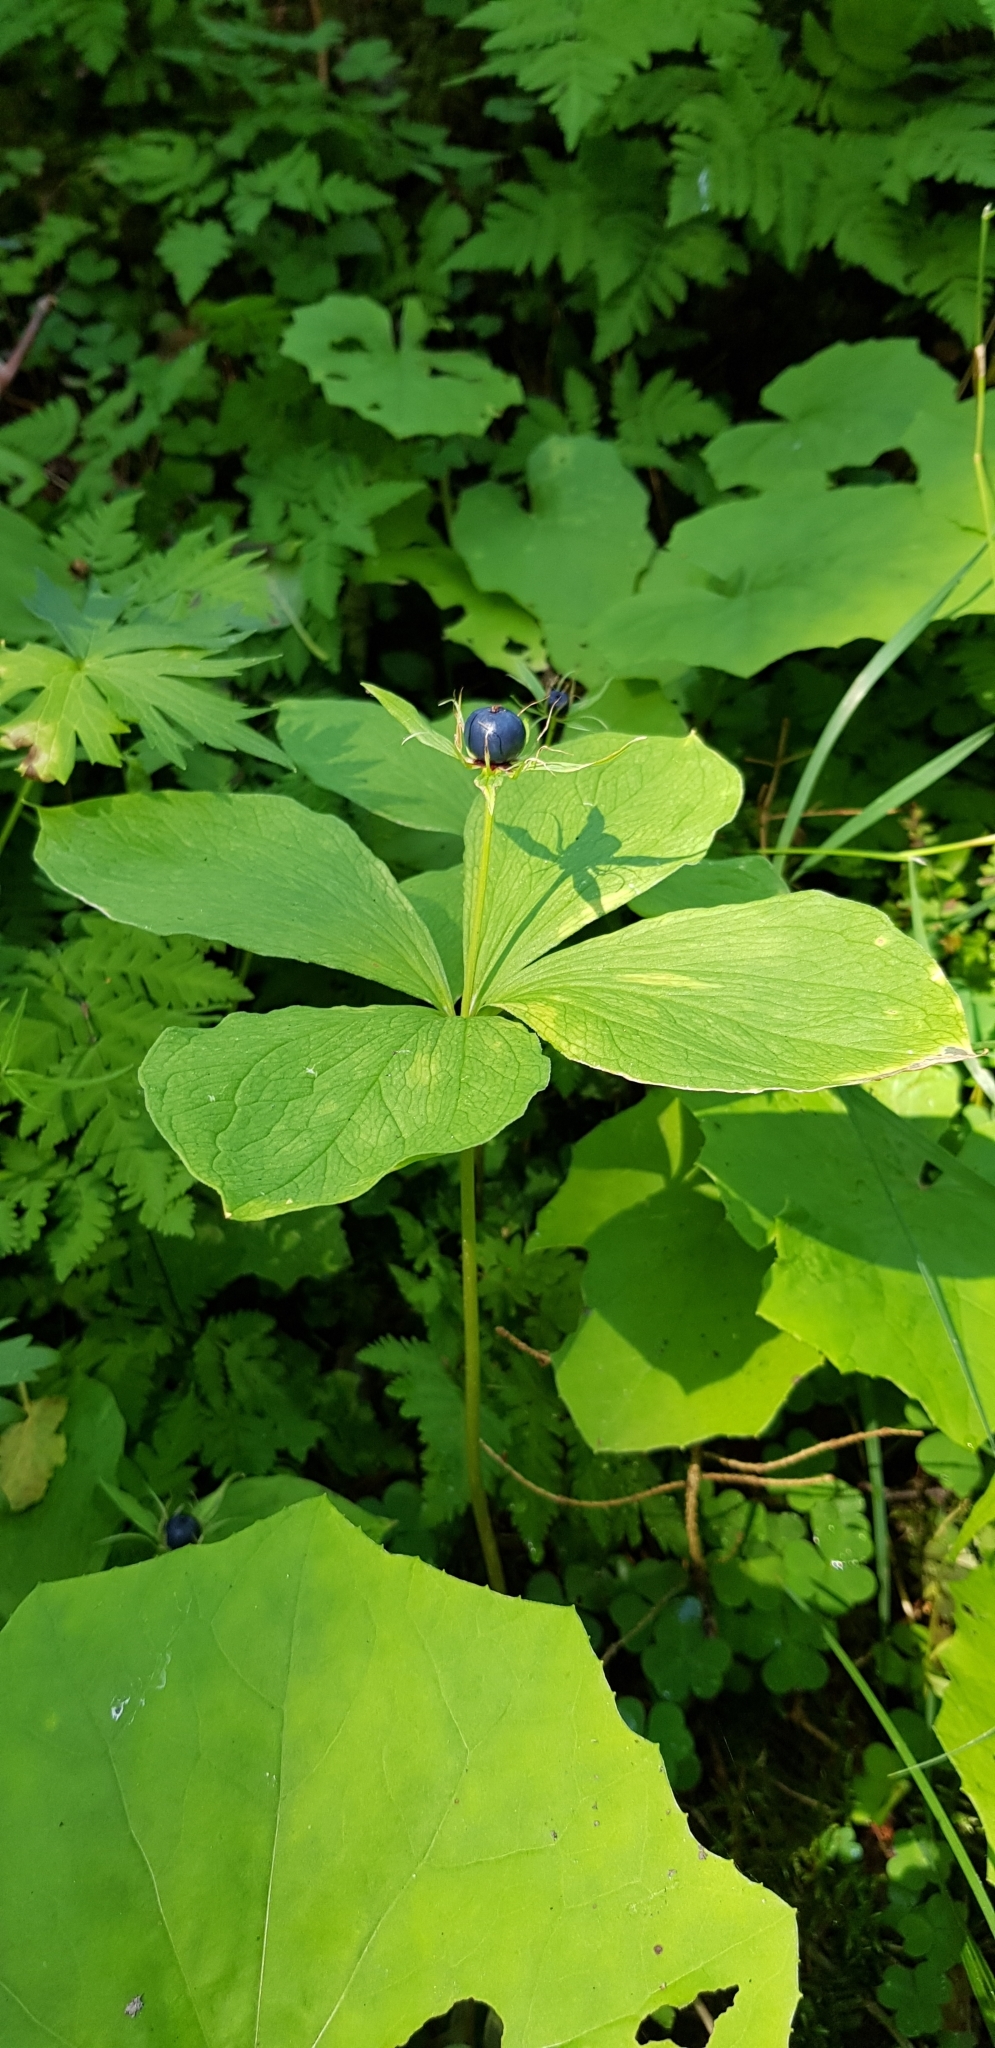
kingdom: Plantae
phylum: Tracheophyta
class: Liliopsida
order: Liliales
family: Melanthiaceae
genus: Paris
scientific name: Paris quadrifolia
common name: Herb-paris
